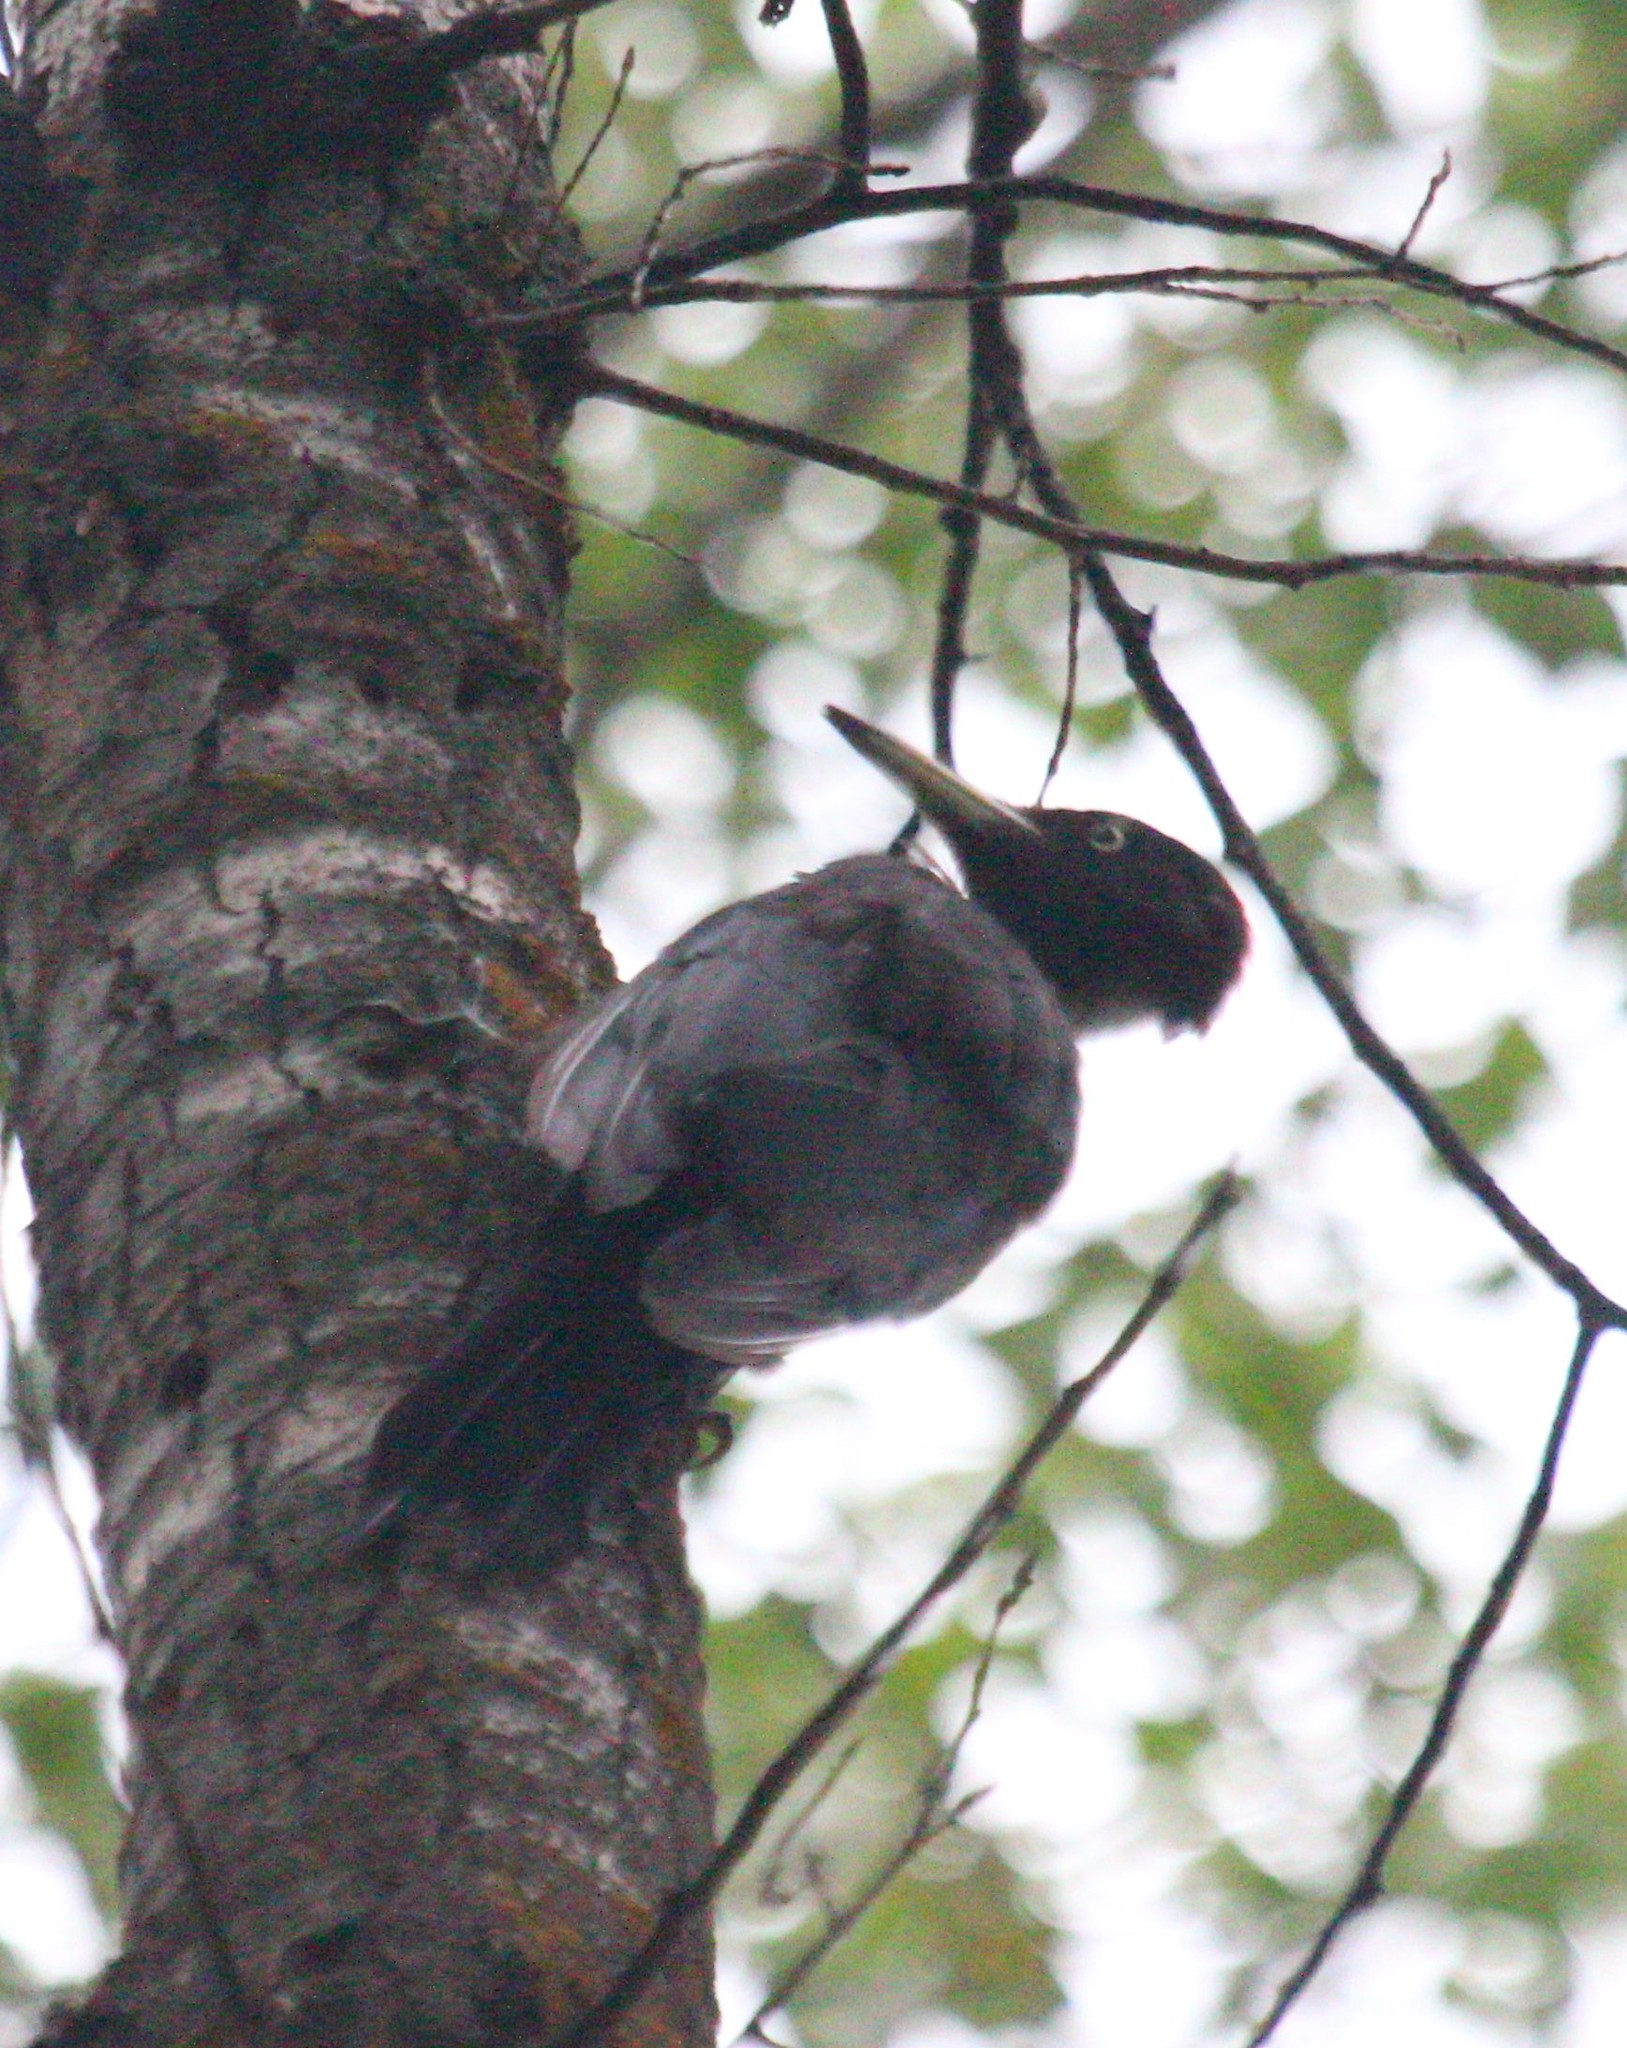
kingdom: Animalia
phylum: Chordata
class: Aves
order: Piciformes
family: Picidae
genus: Dryocopus
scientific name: Dryocopus martius
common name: Black woodpecker
